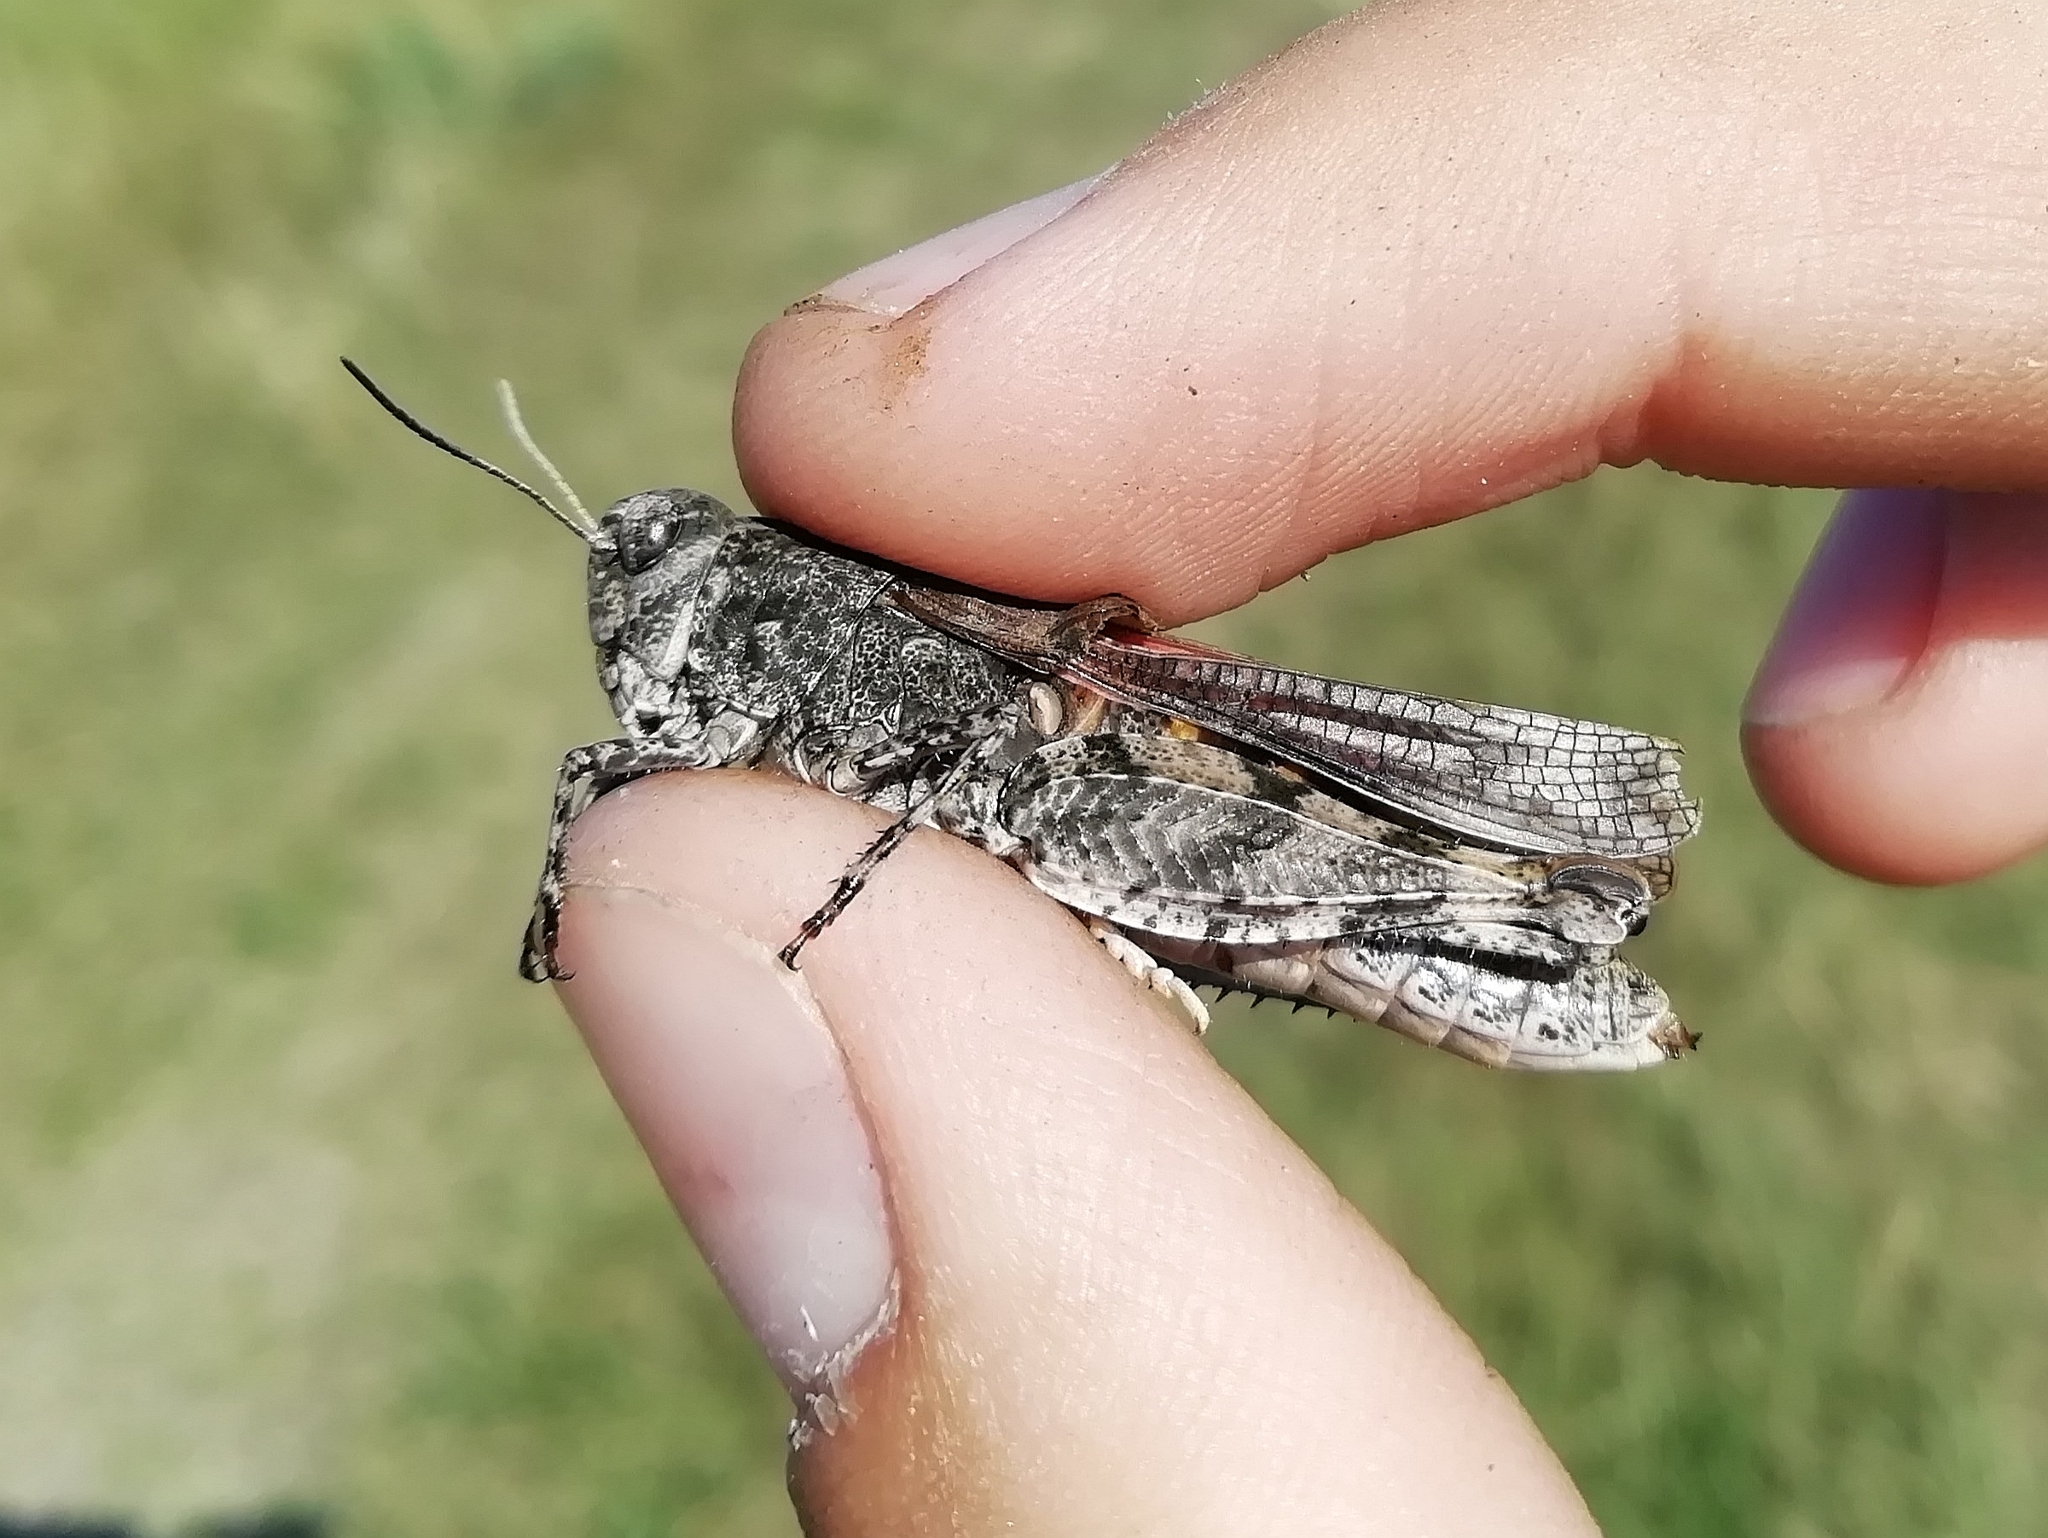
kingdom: Animalia
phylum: Arthropoda
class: Insecta
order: Orthoptera
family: Acrididae
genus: Celes
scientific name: Celes skalozubovi
